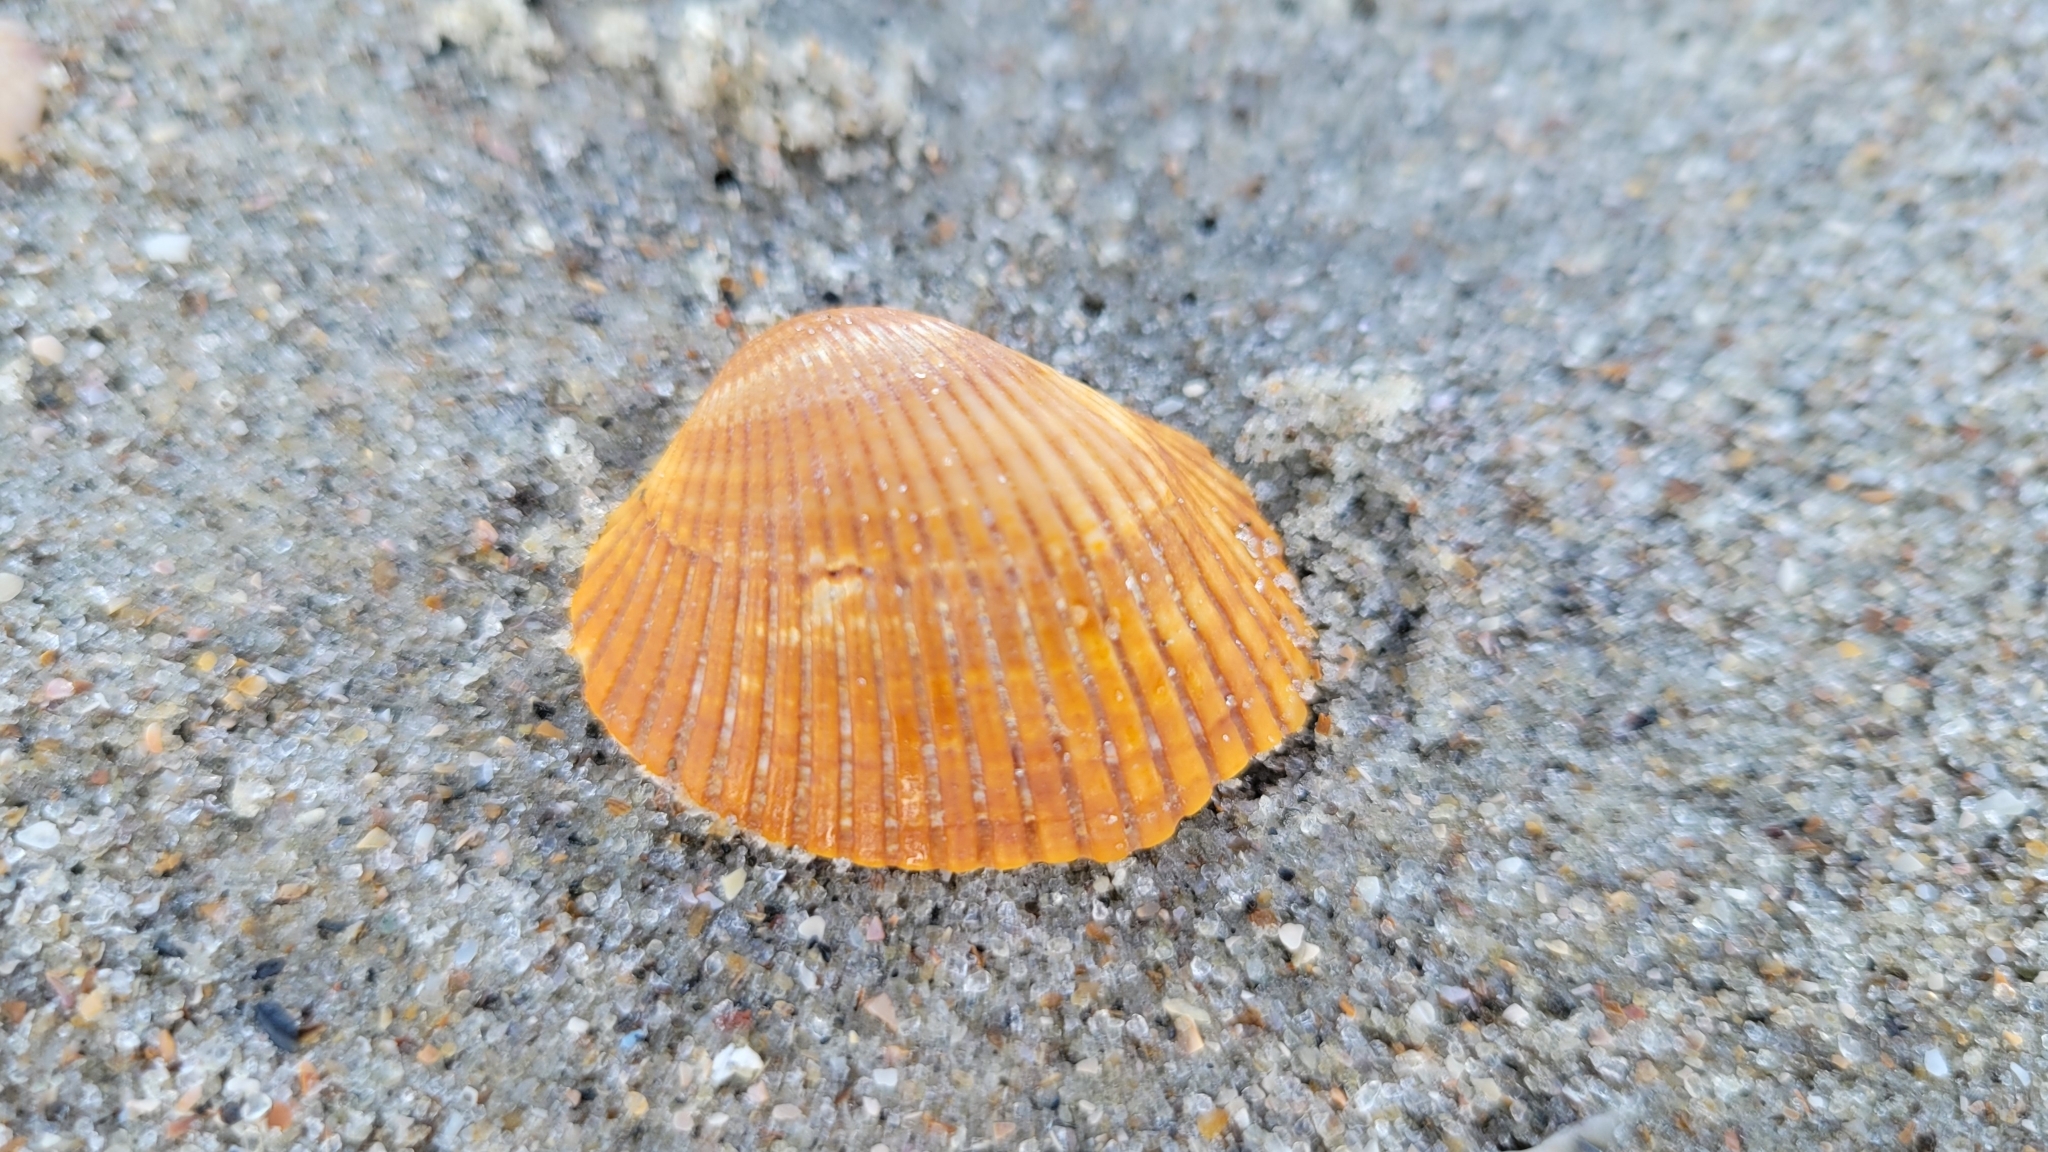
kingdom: Animalia
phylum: Mollusca
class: Bivalvia
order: Arcida
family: Arcidae
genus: Lunarca
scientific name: Lunarca ovalis
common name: Blood ark
